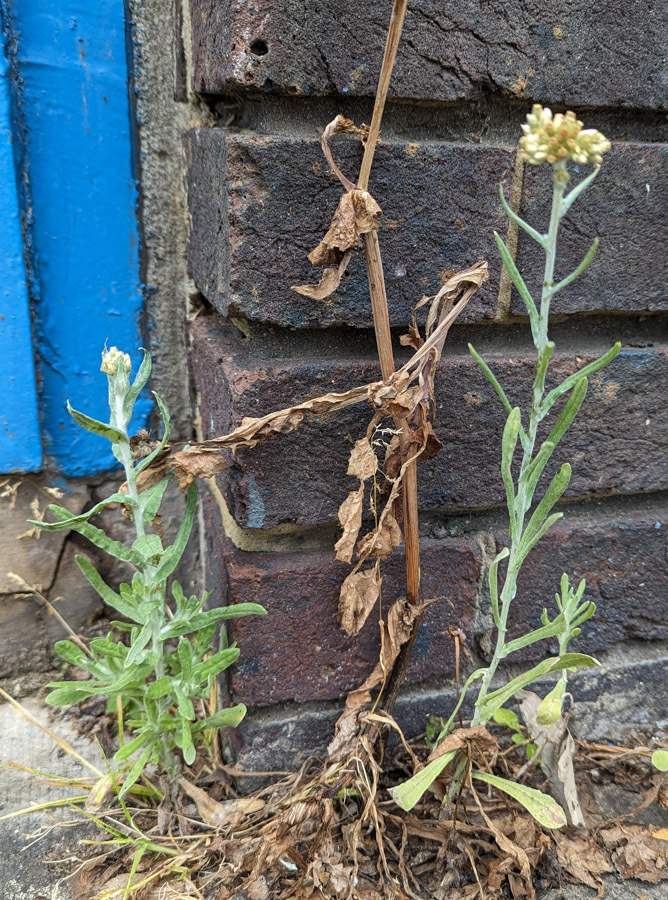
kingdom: Plantae
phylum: Tracheophyta
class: Magnoliopsida
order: Asterales
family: Asteraceae
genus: Helichrysum
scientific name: Helichrysum luteoalbum
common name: Daisy
